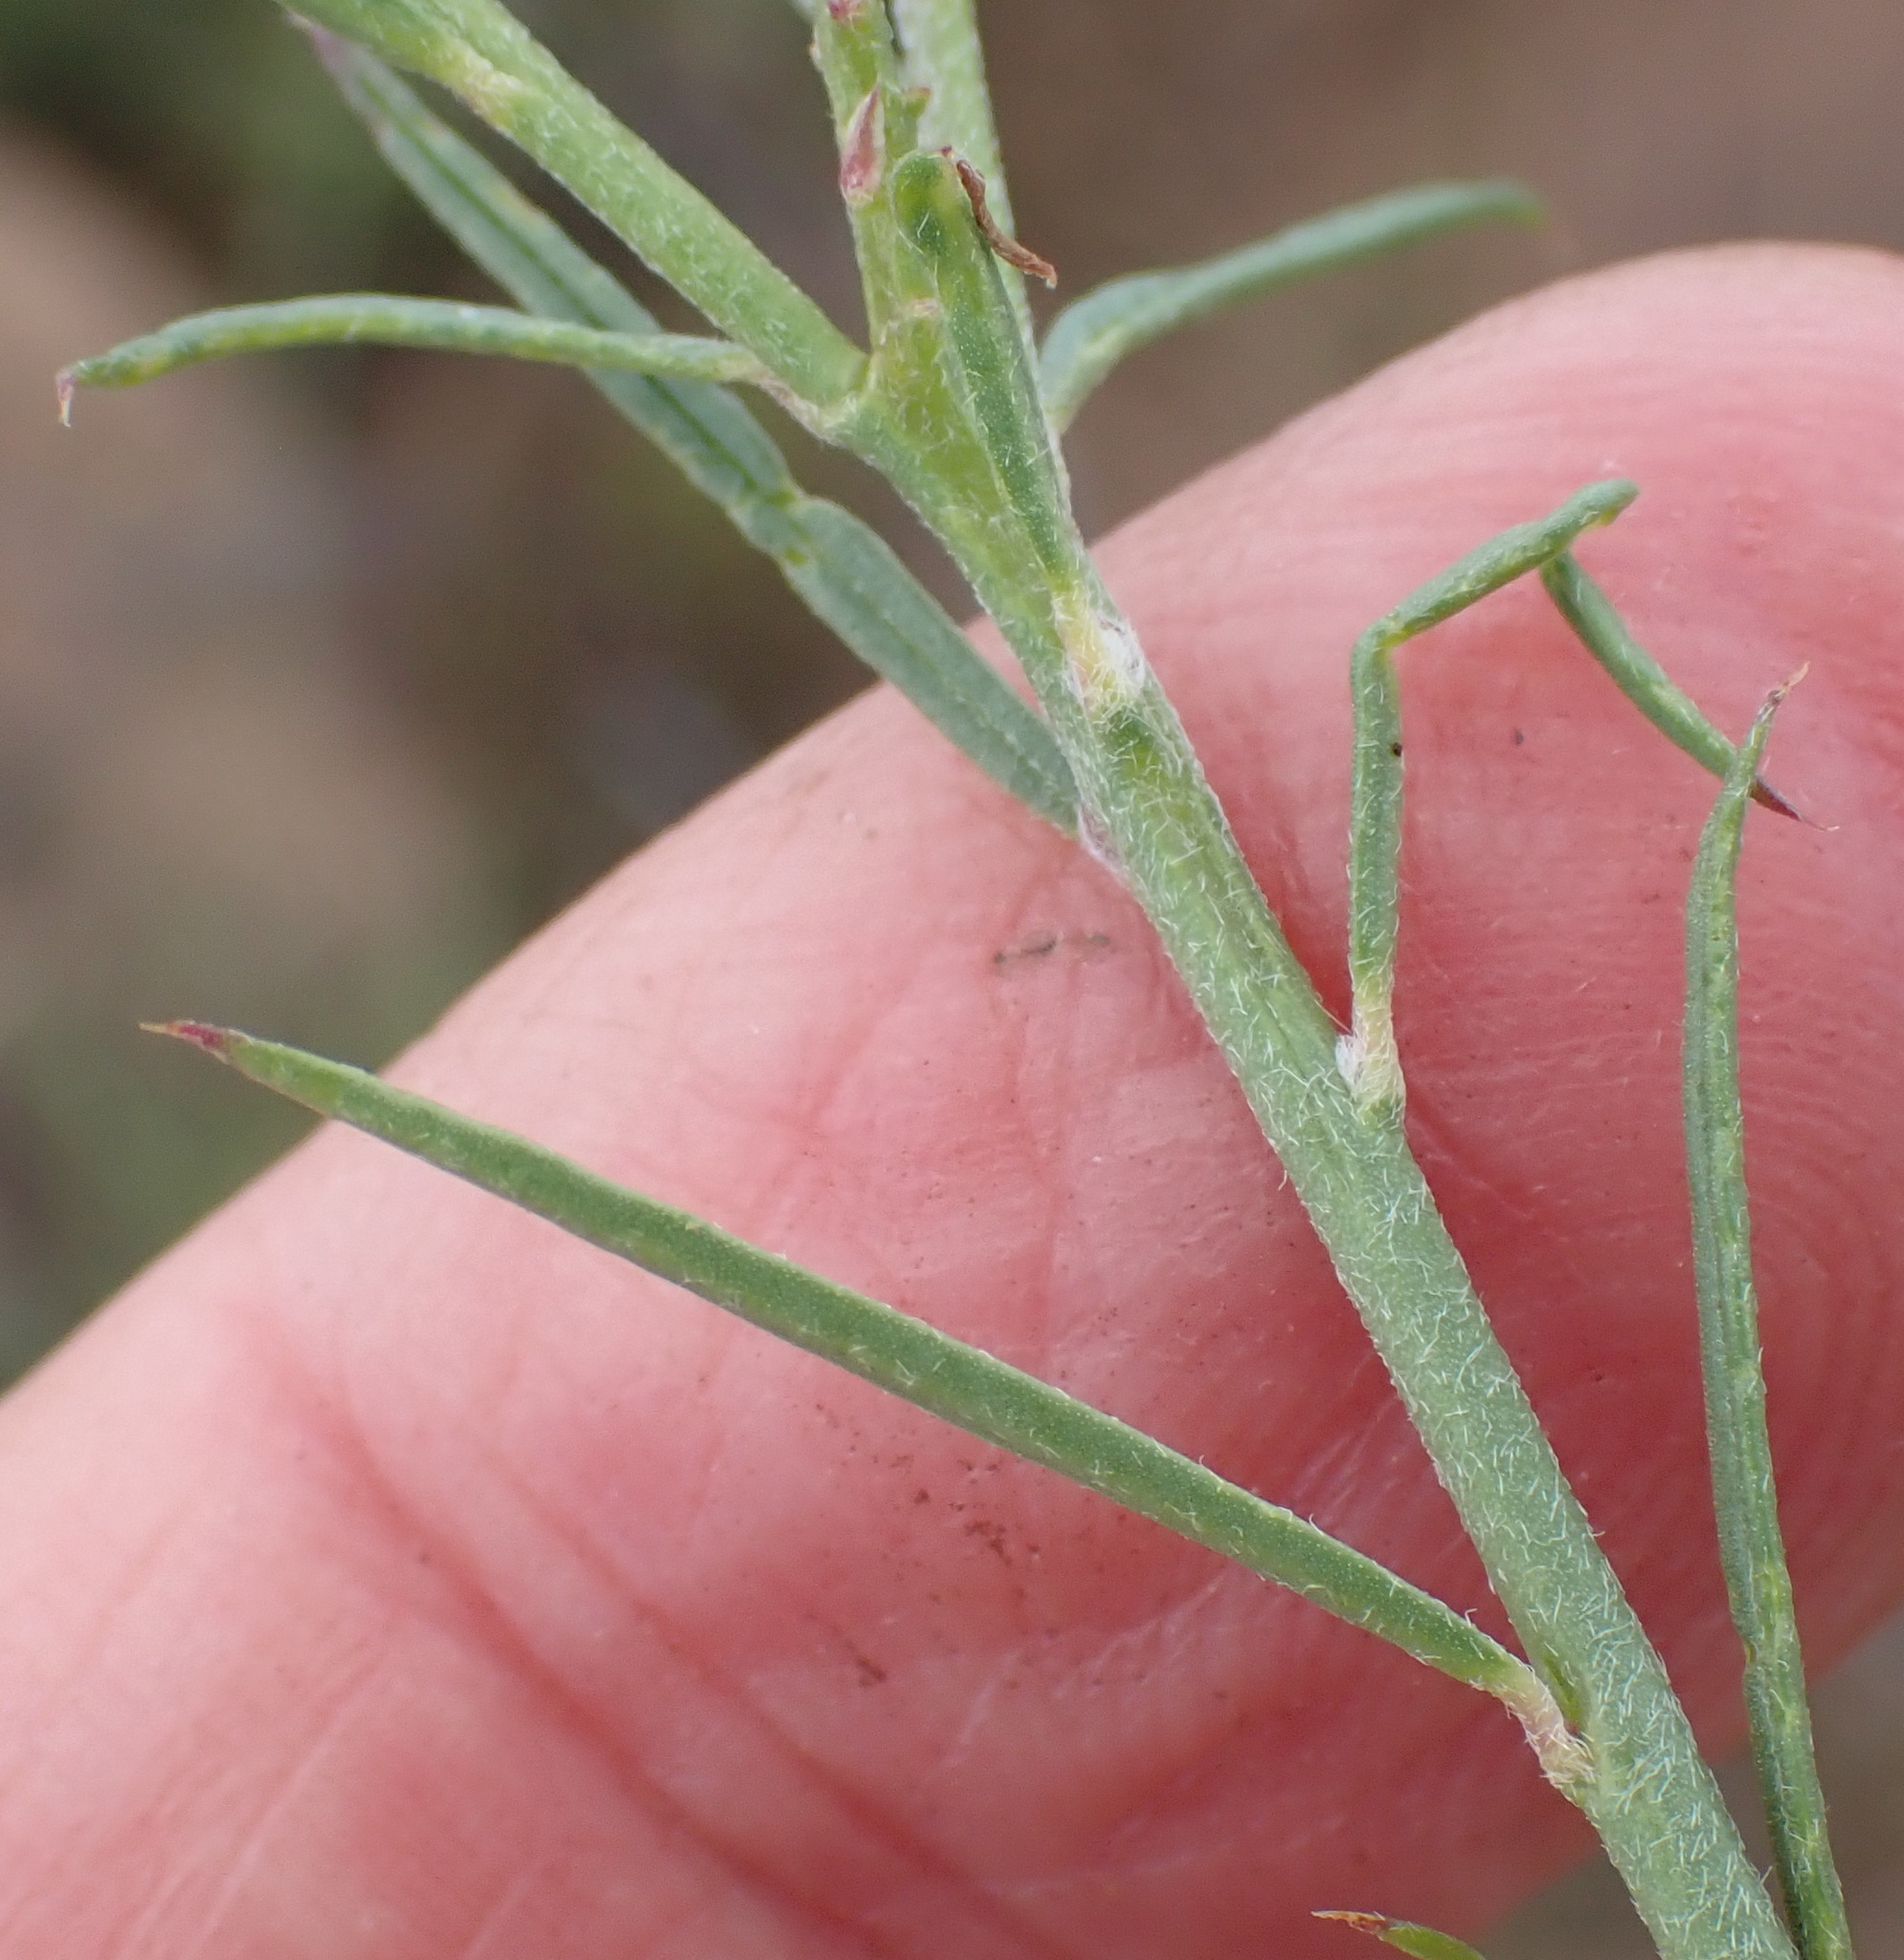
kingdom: Plantae
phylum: Tracheophyta
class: Magnoliopsida
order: Fabales
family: Polygalaceae
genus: Polygala
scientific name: Polygala hottentotta
